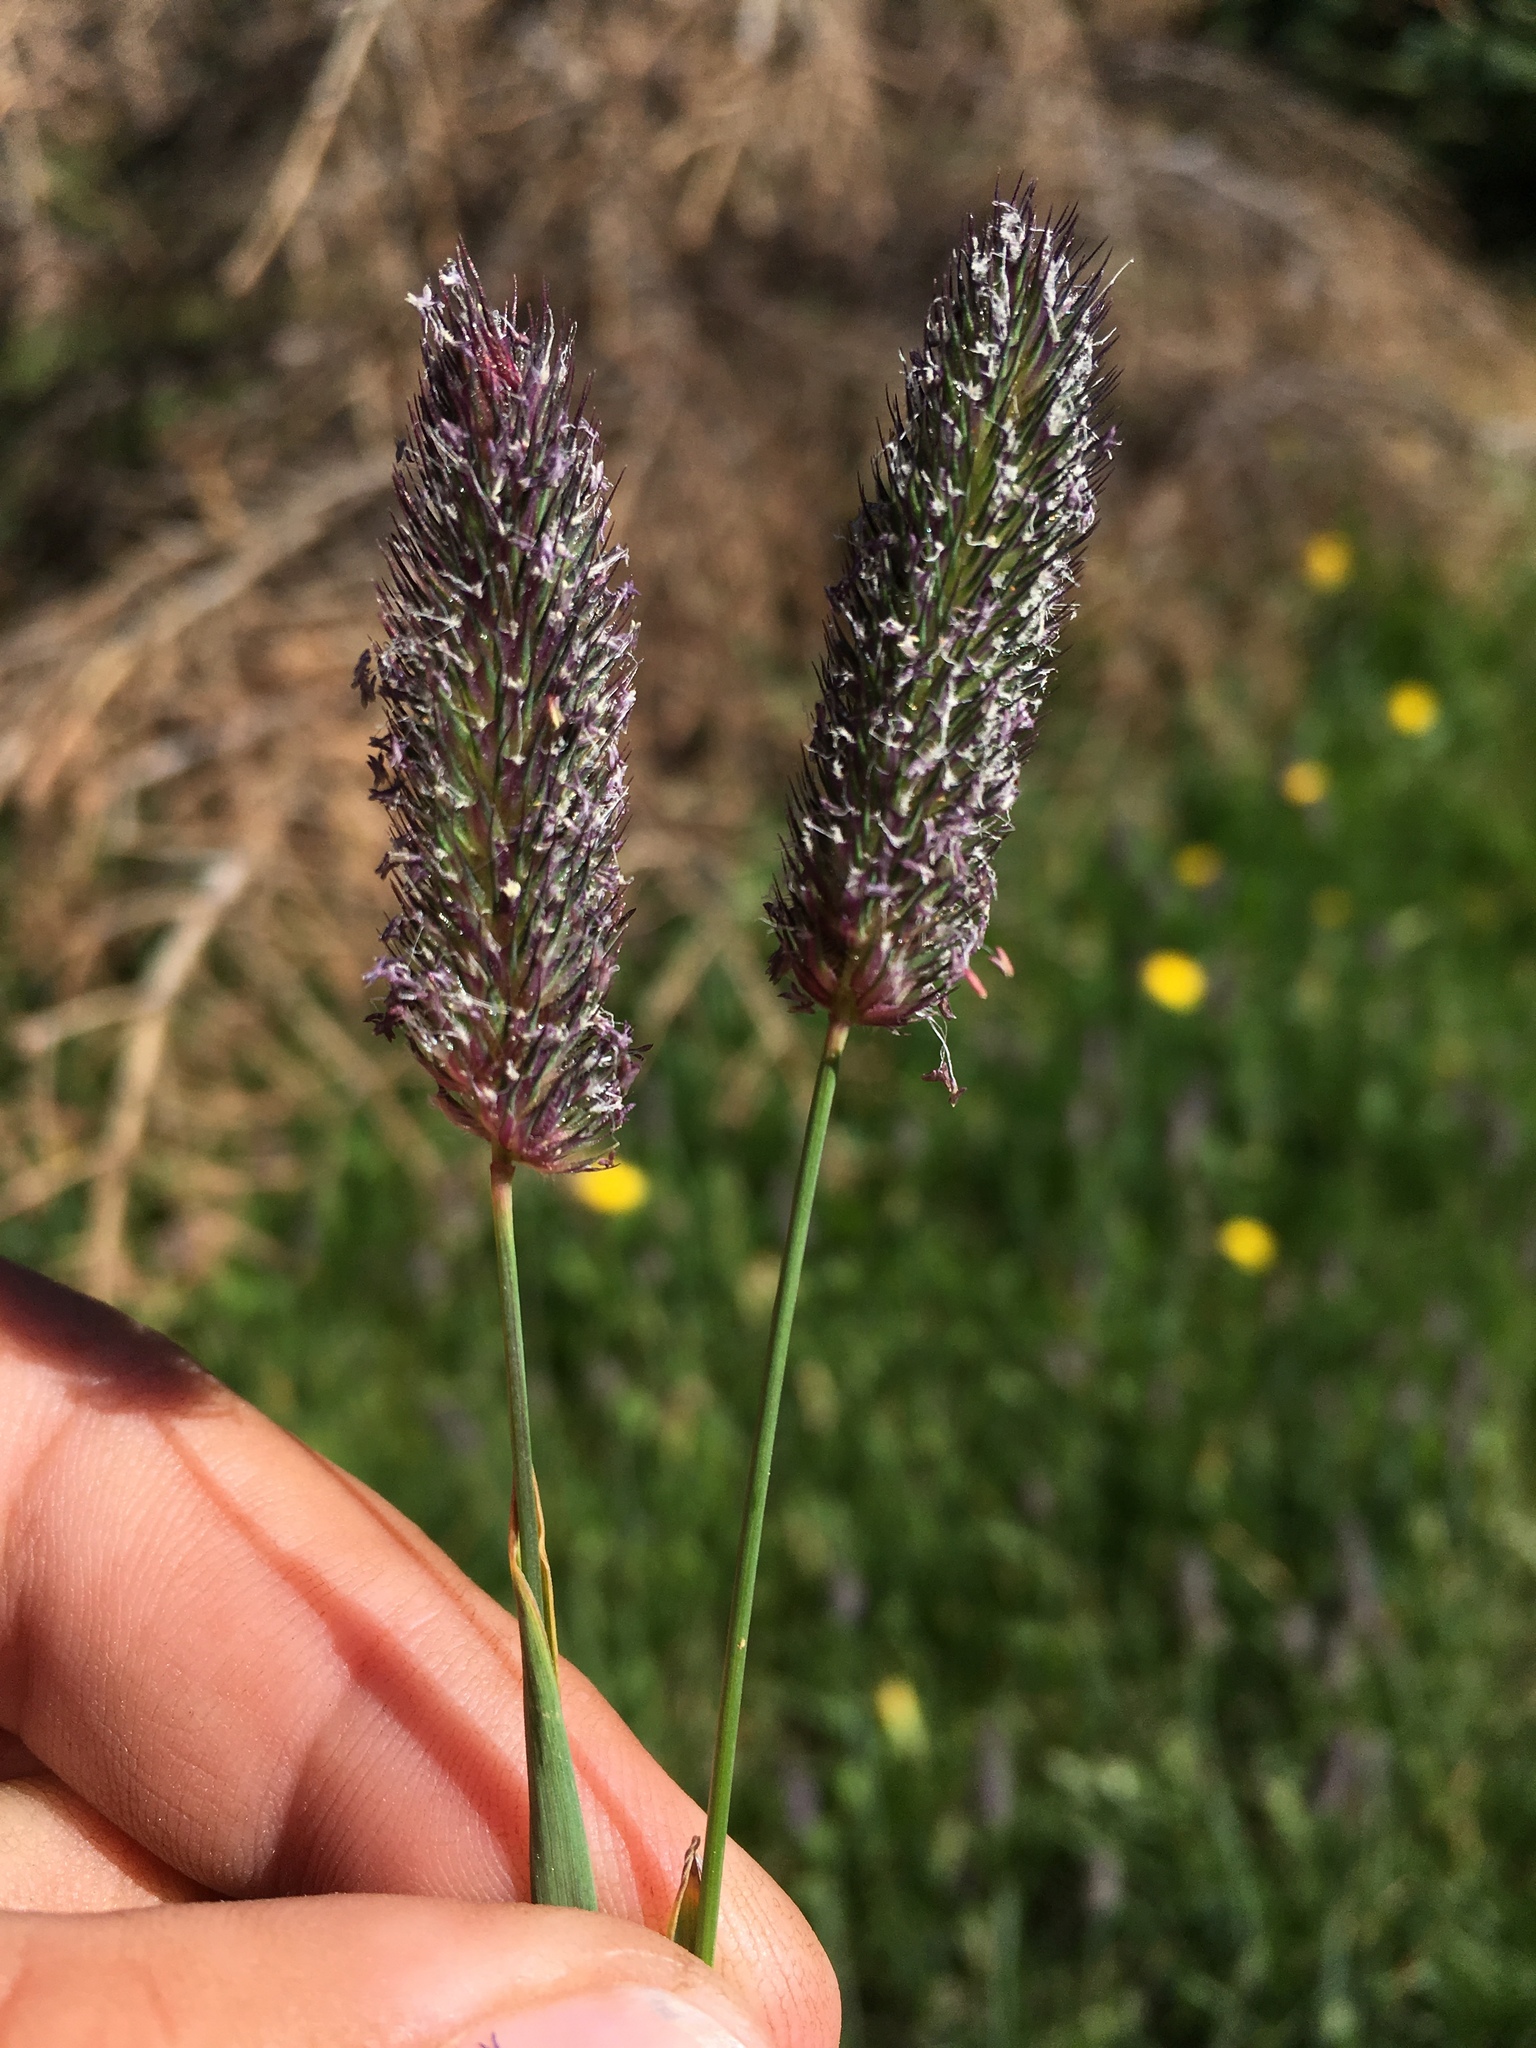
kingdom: Plantae
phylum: Tracheophyta
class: Liliopsida
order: Poales
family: Poaceae
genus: Phleum
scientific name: Phleum alpinum
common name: Alpine cat's-tail
